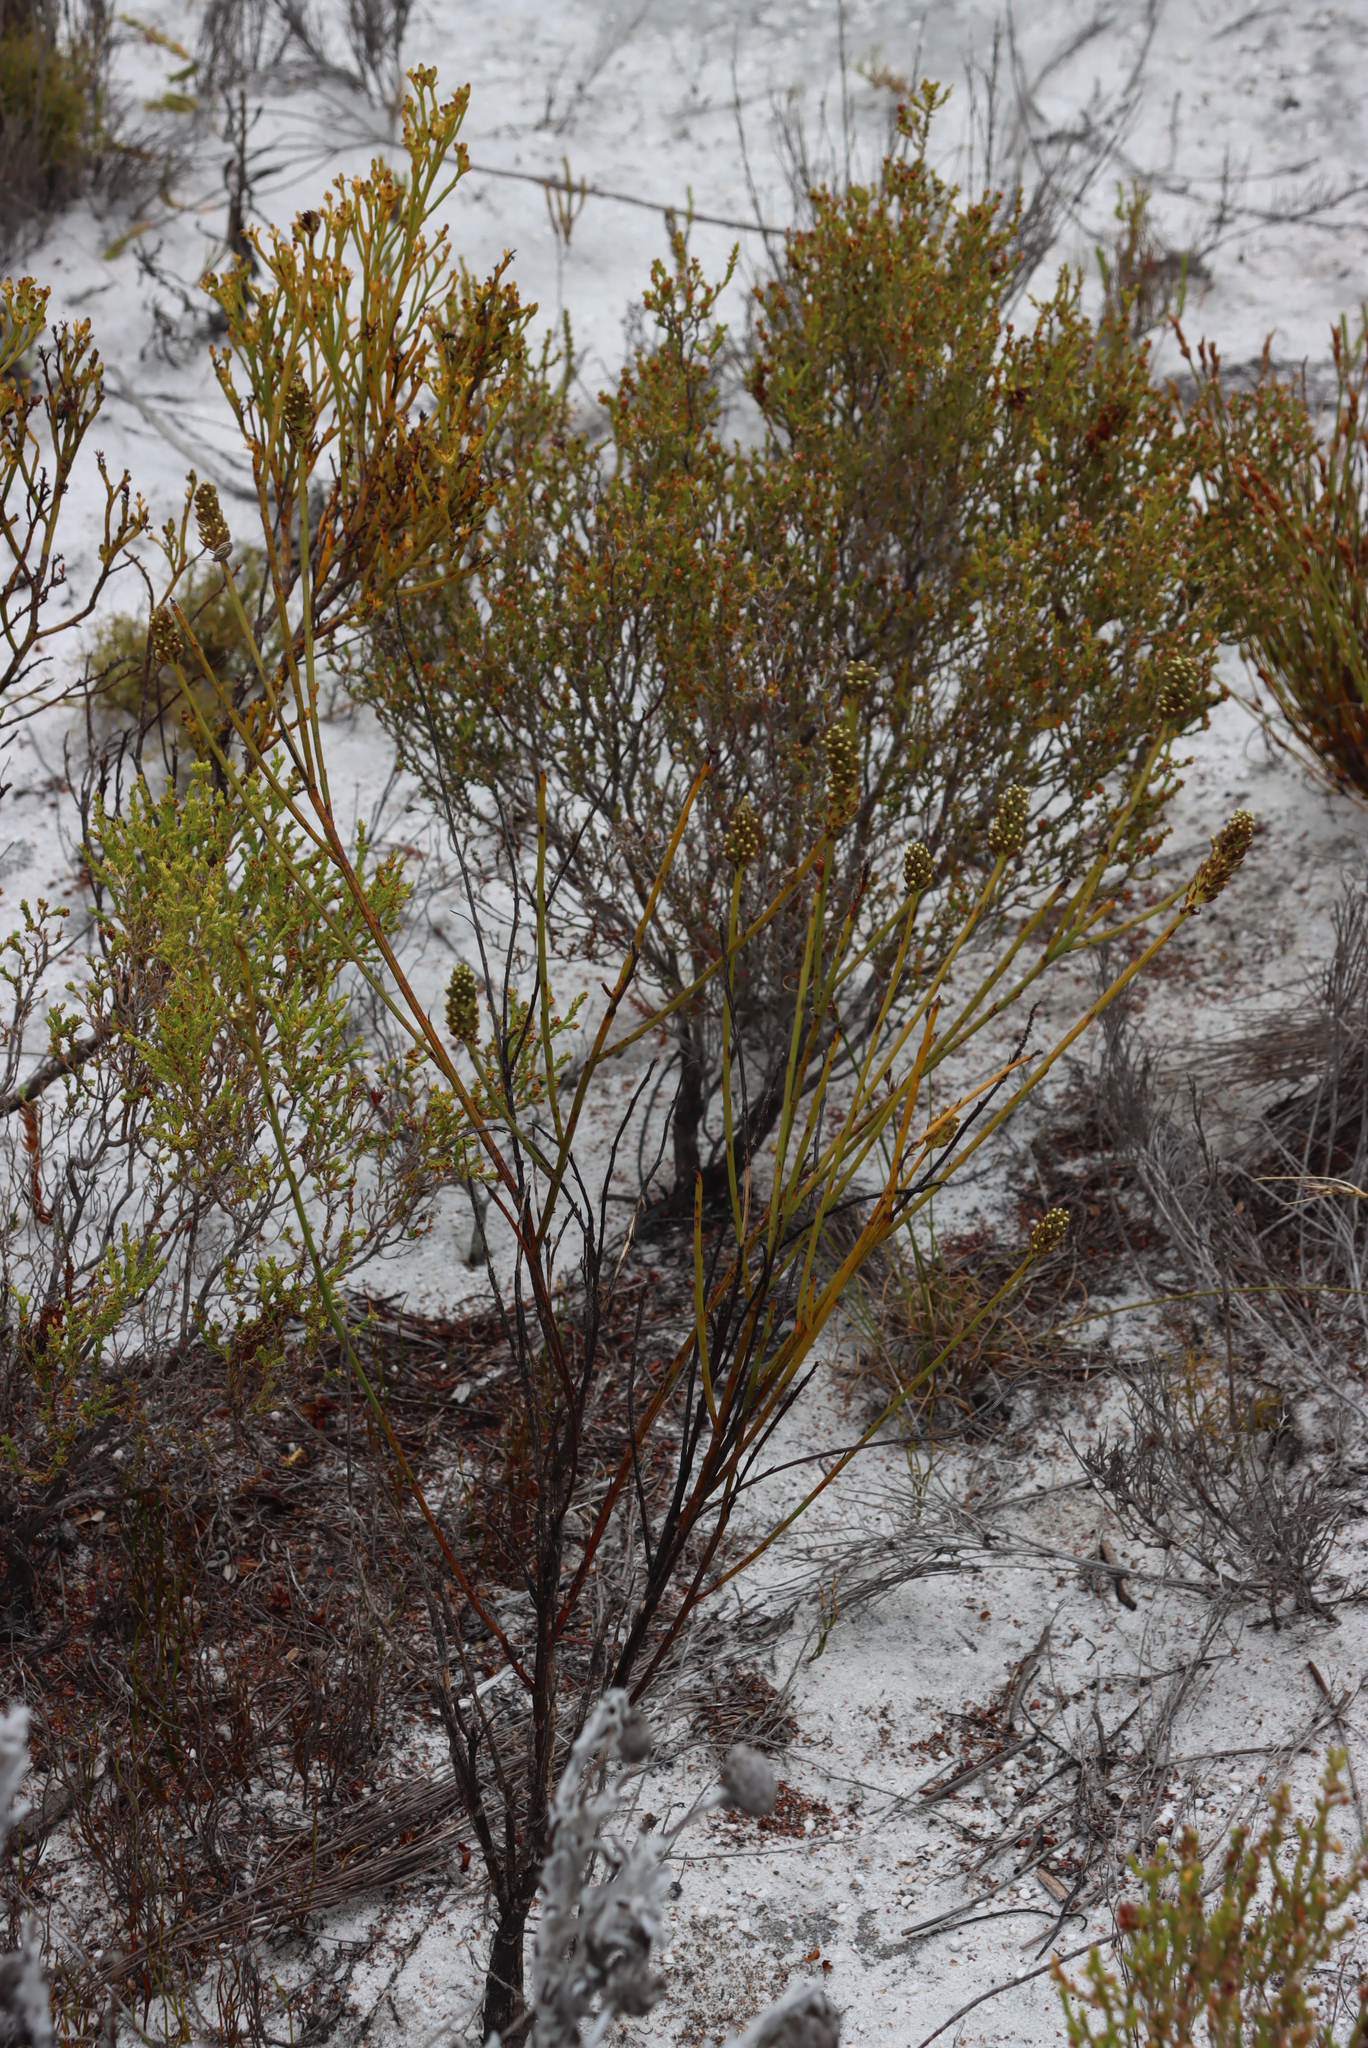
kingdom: Plantae
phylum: Tracheophyta
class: Magnoliopsida
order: Santalales
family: Thesiaceae
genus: Thesium
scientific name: Thesium aggregatum
